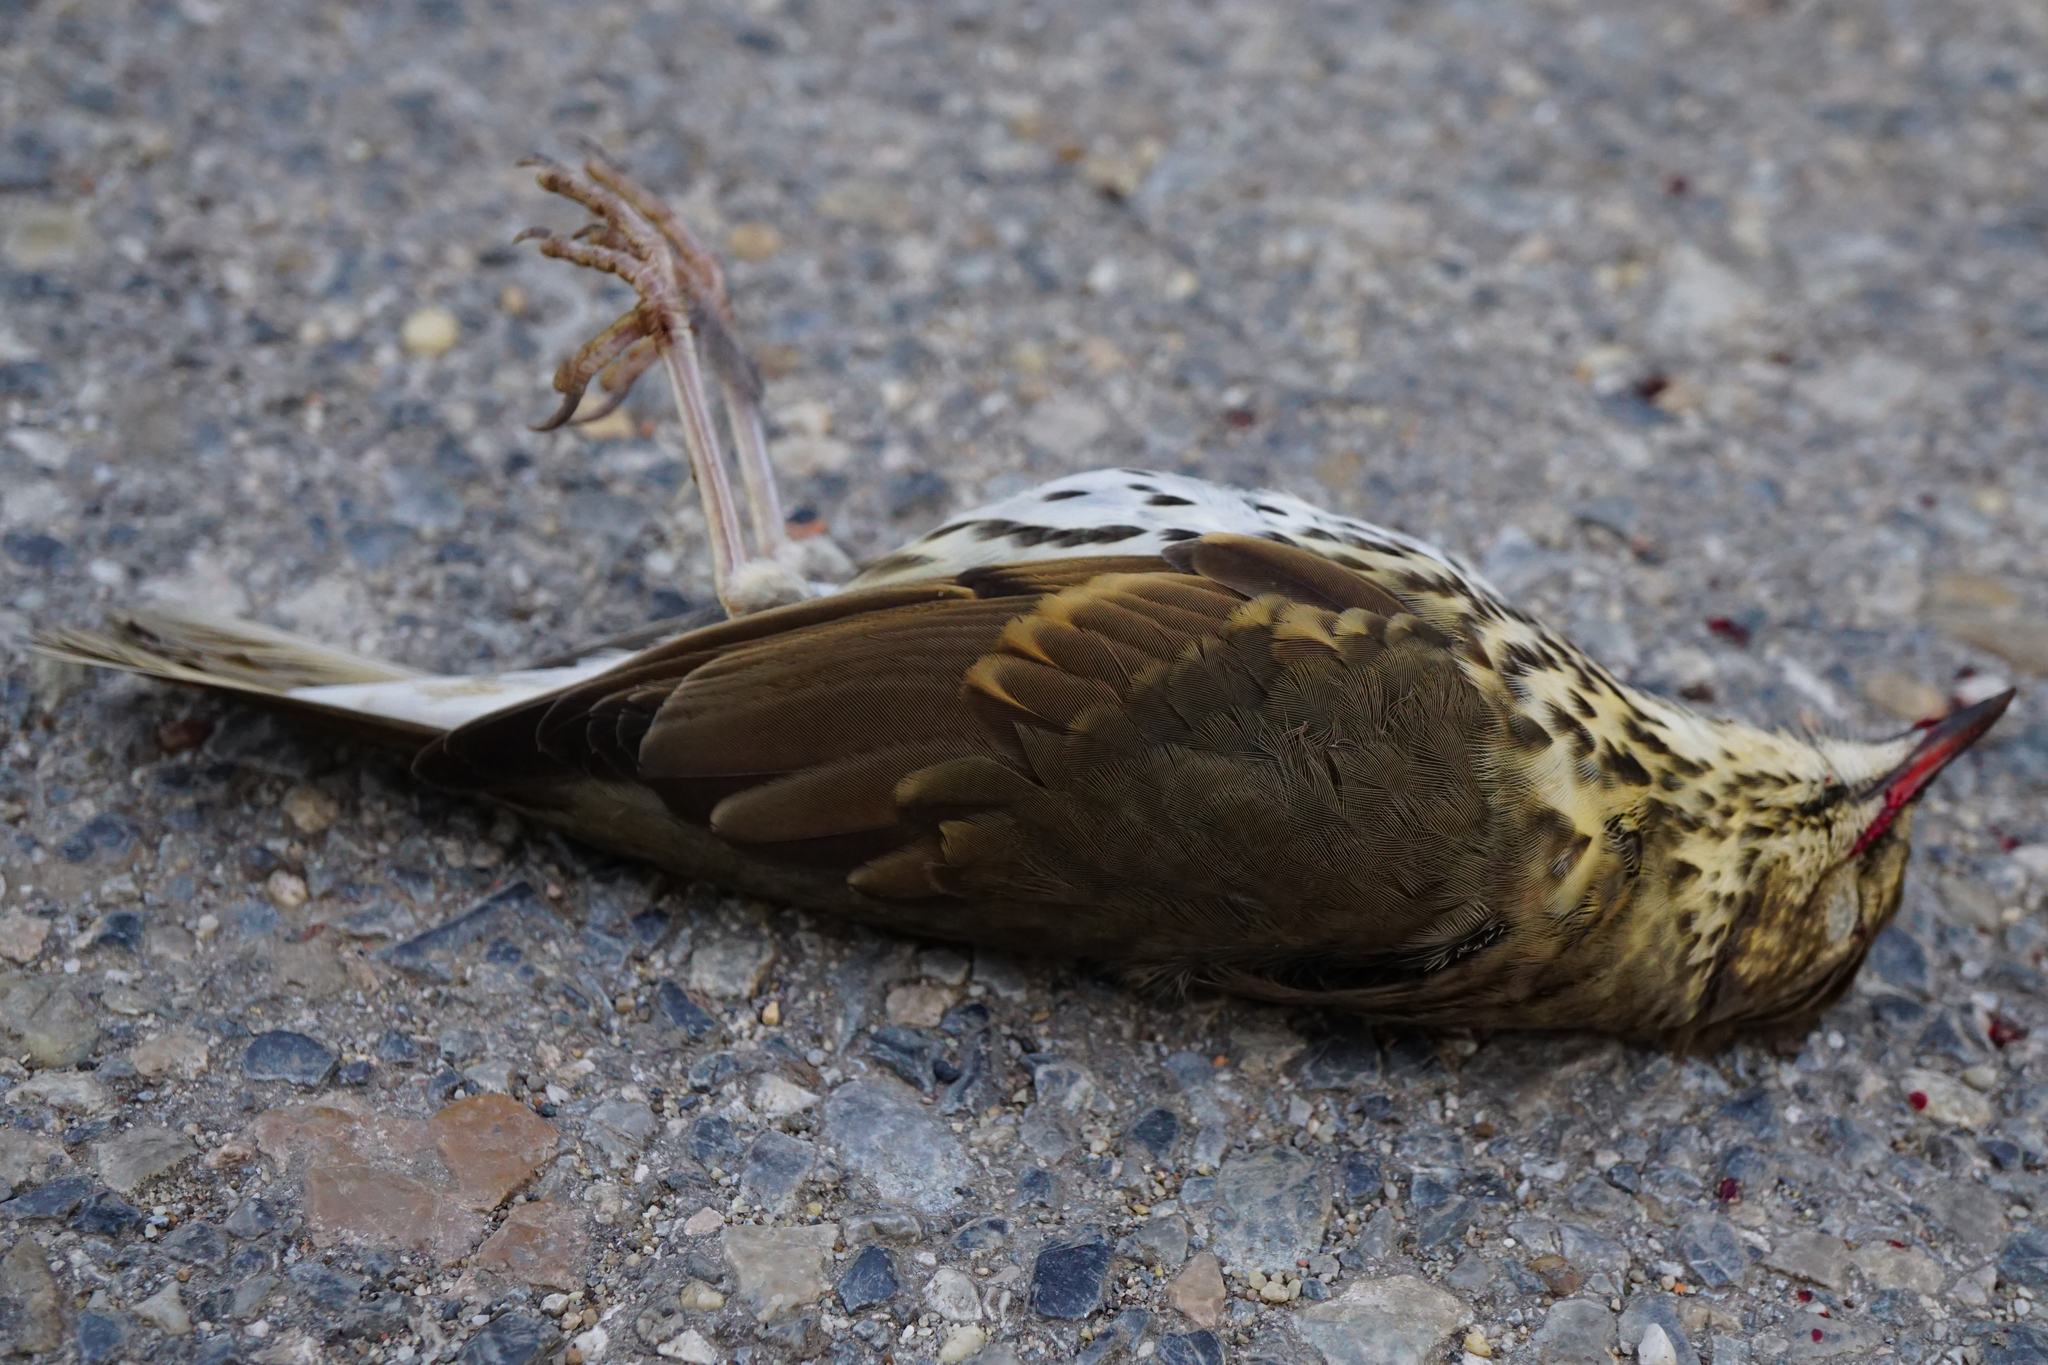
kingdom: Animalia
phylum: Chordata
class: Aves
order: Passeriformes
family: Turdidae
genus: Turdus
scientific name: Turdus philomelos
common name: Song thrush
